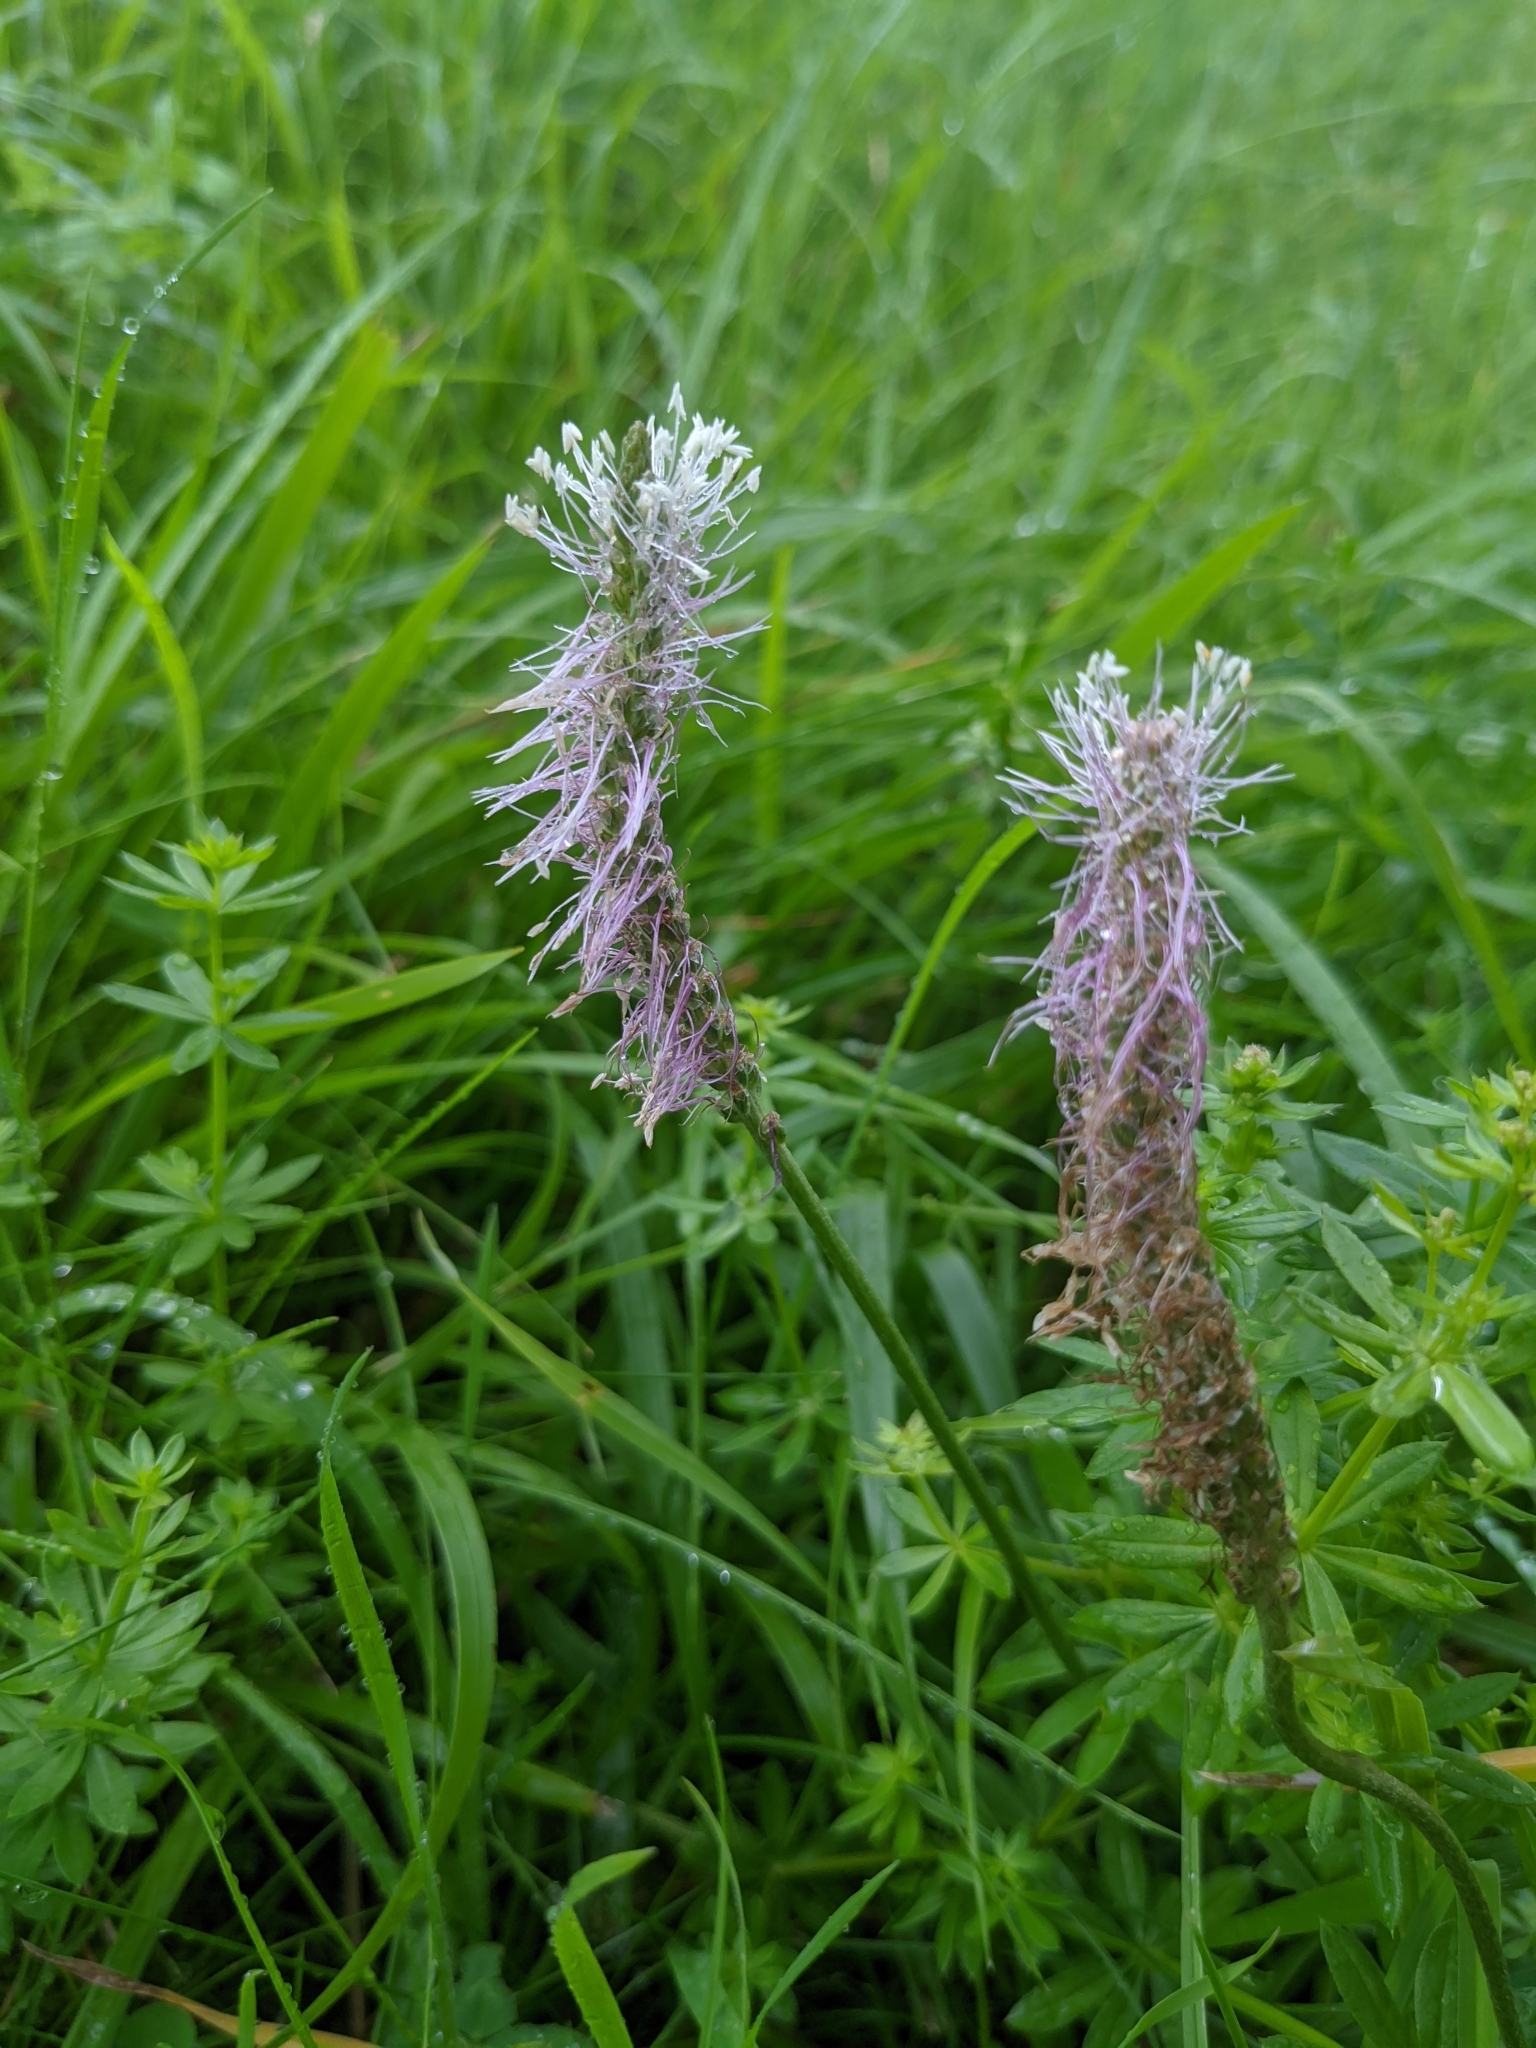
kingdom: Plantae
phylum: Tracheophyta
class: Magnoliopsida
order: Lamiales
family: Plantaginaceae
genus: Plantago
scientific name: Plantago media
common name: Hoary plantain
